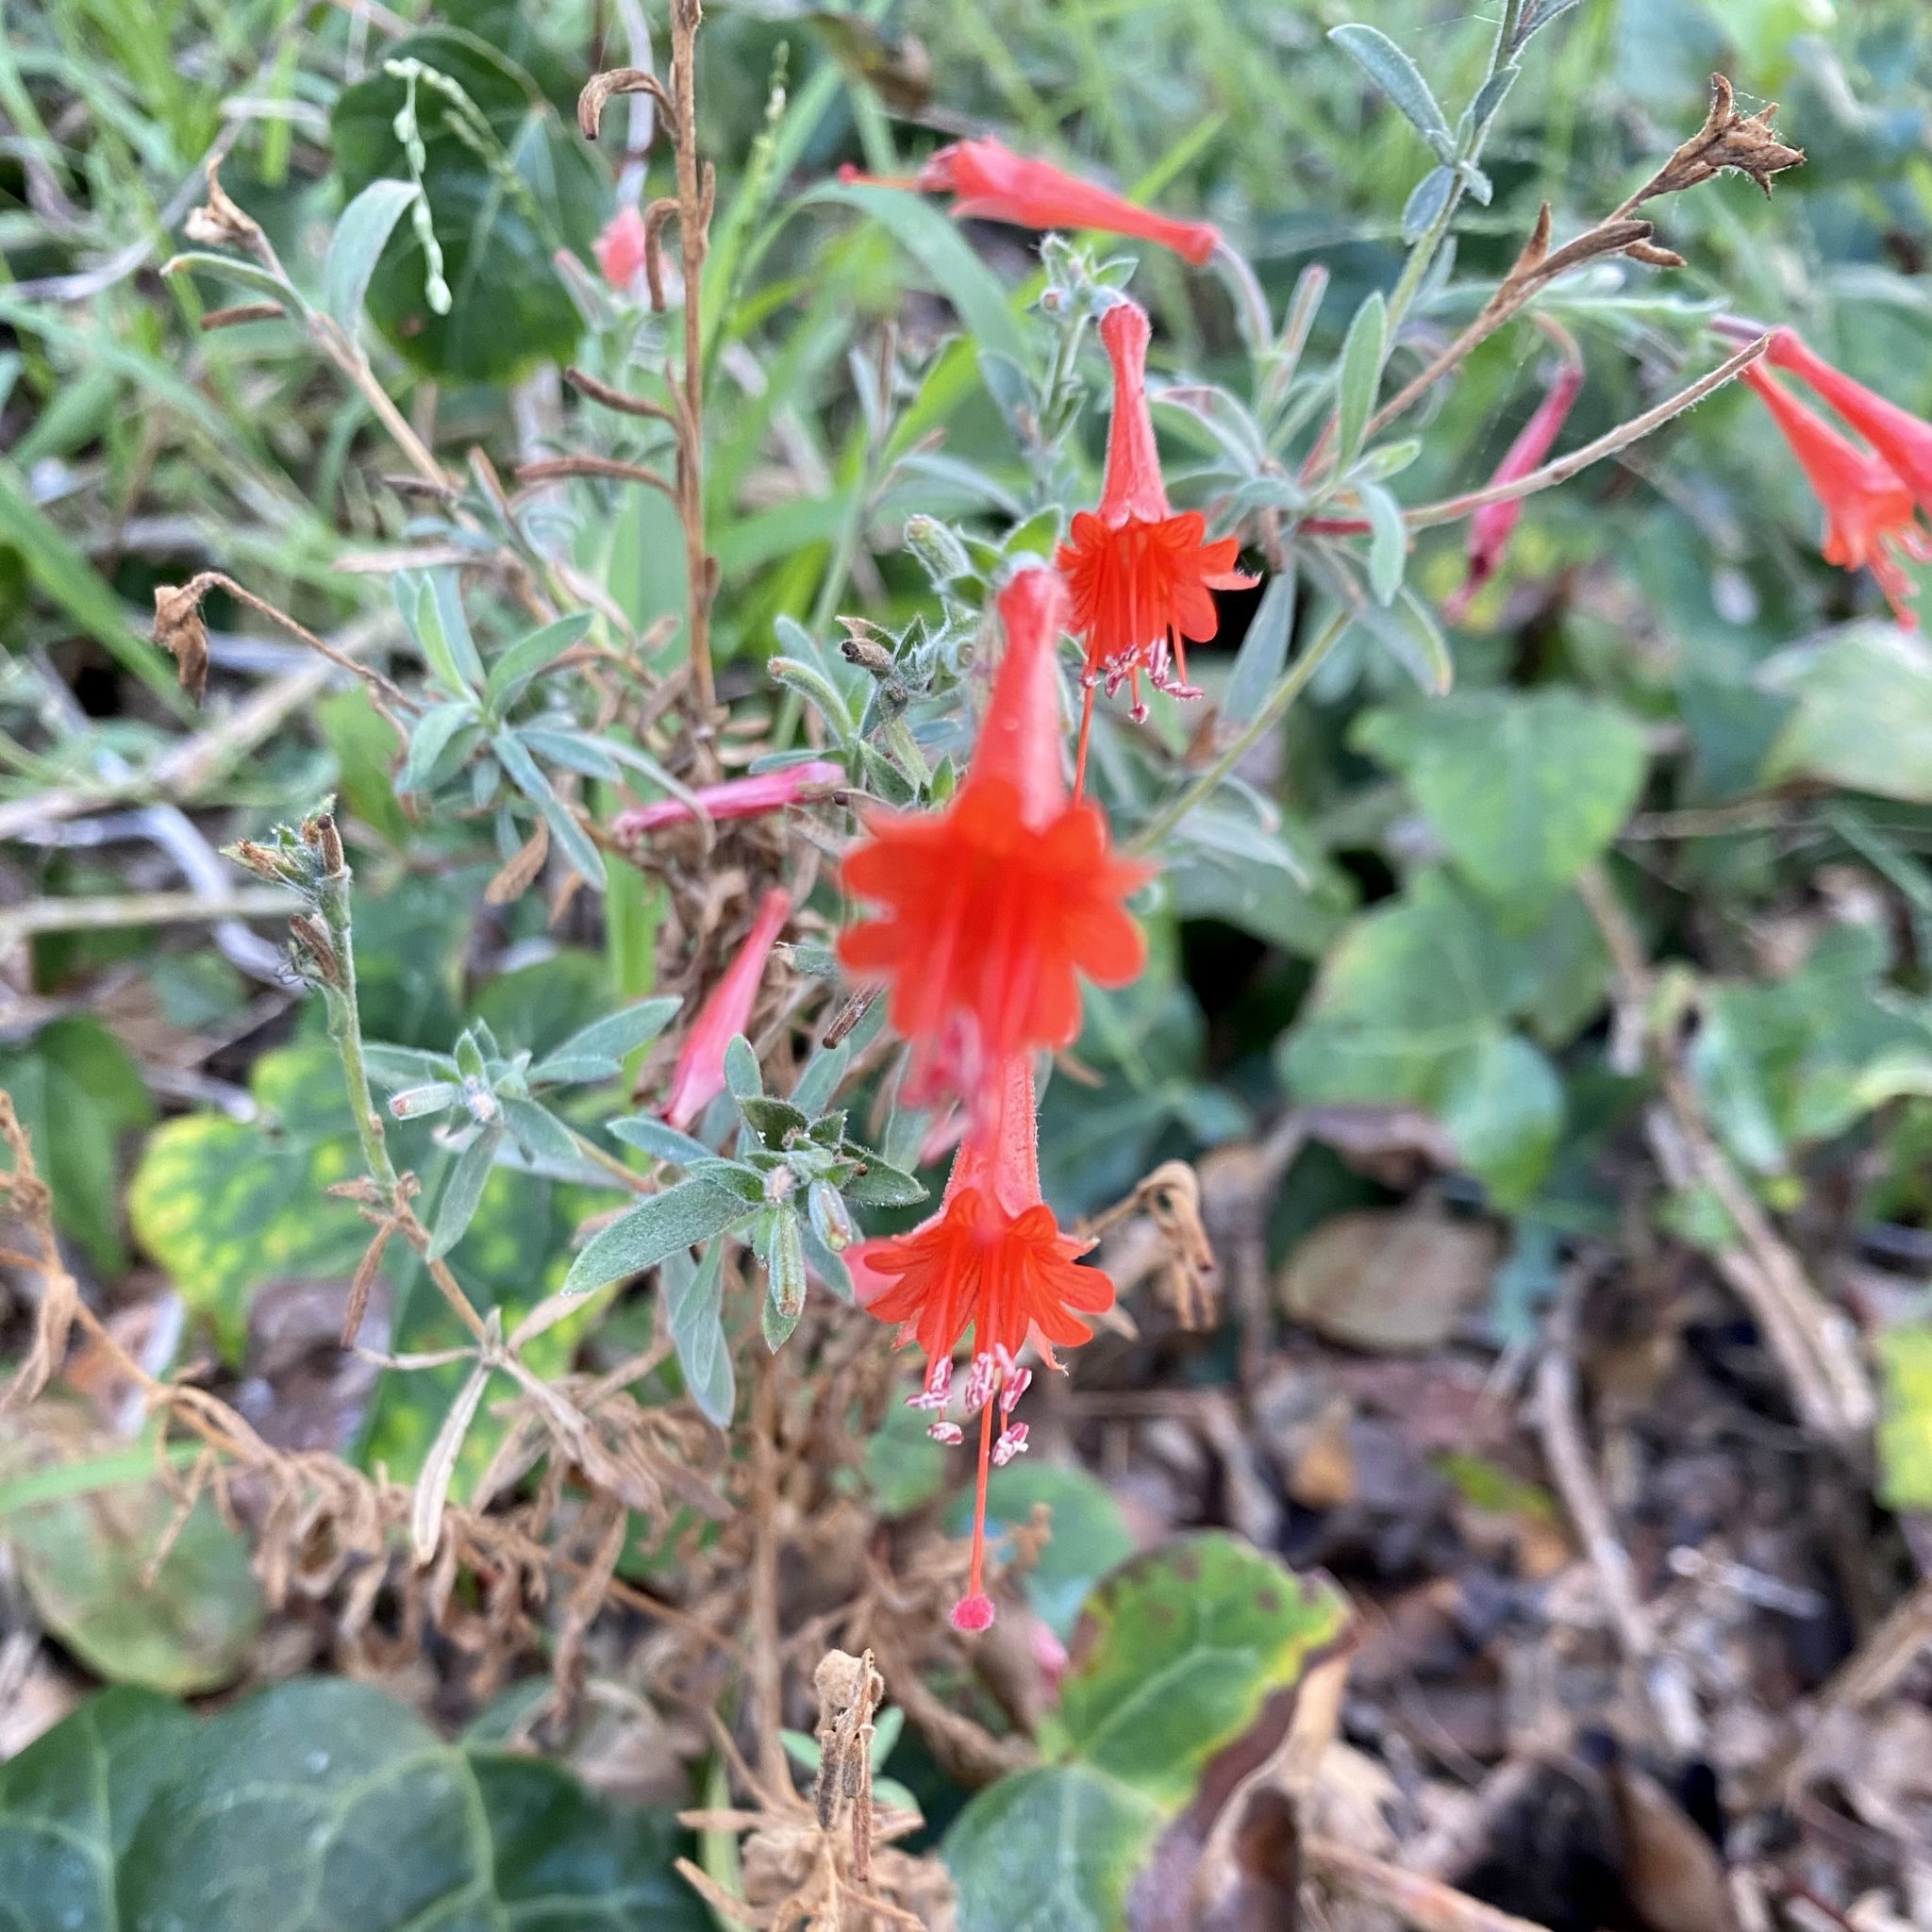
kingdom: Plantae
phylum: Tracheophyta
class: Magnoliopsida
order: Myrtales
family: Onagraceae
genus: Epilobium
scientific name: Epilobium canum
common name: California-fuchsia
